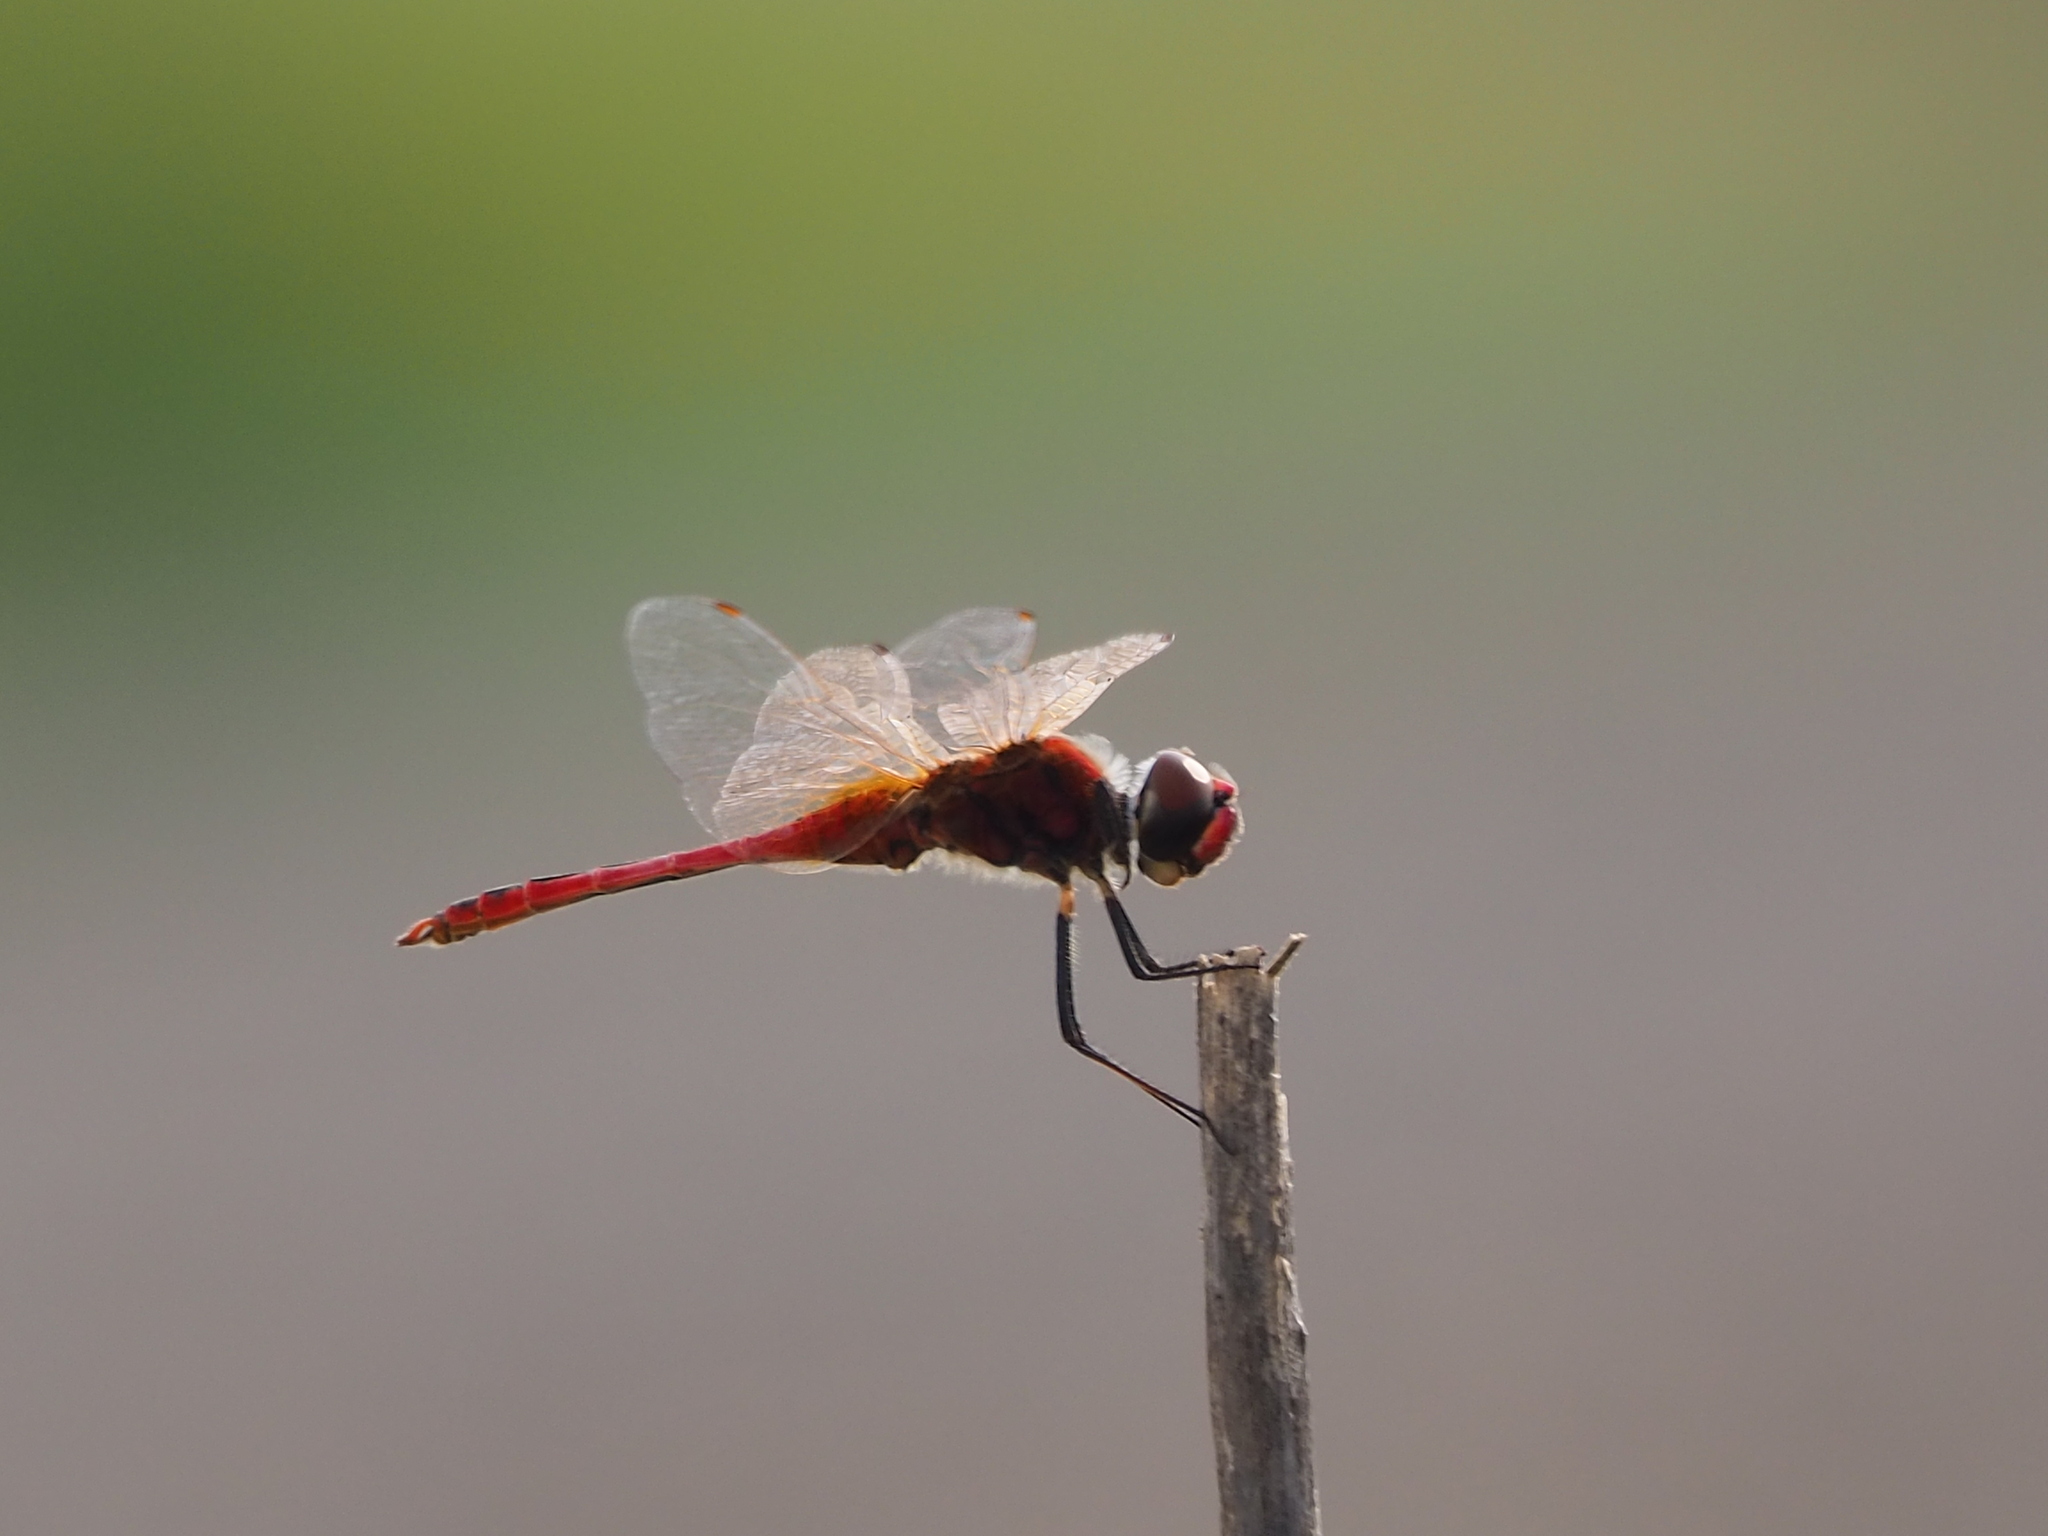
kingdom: Animalia
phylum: Arthropoda
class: Insecta
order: Odonata
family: Libellulidae
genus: Macrodiplax
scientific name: Macrodiplax cora
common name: Coastal glider
